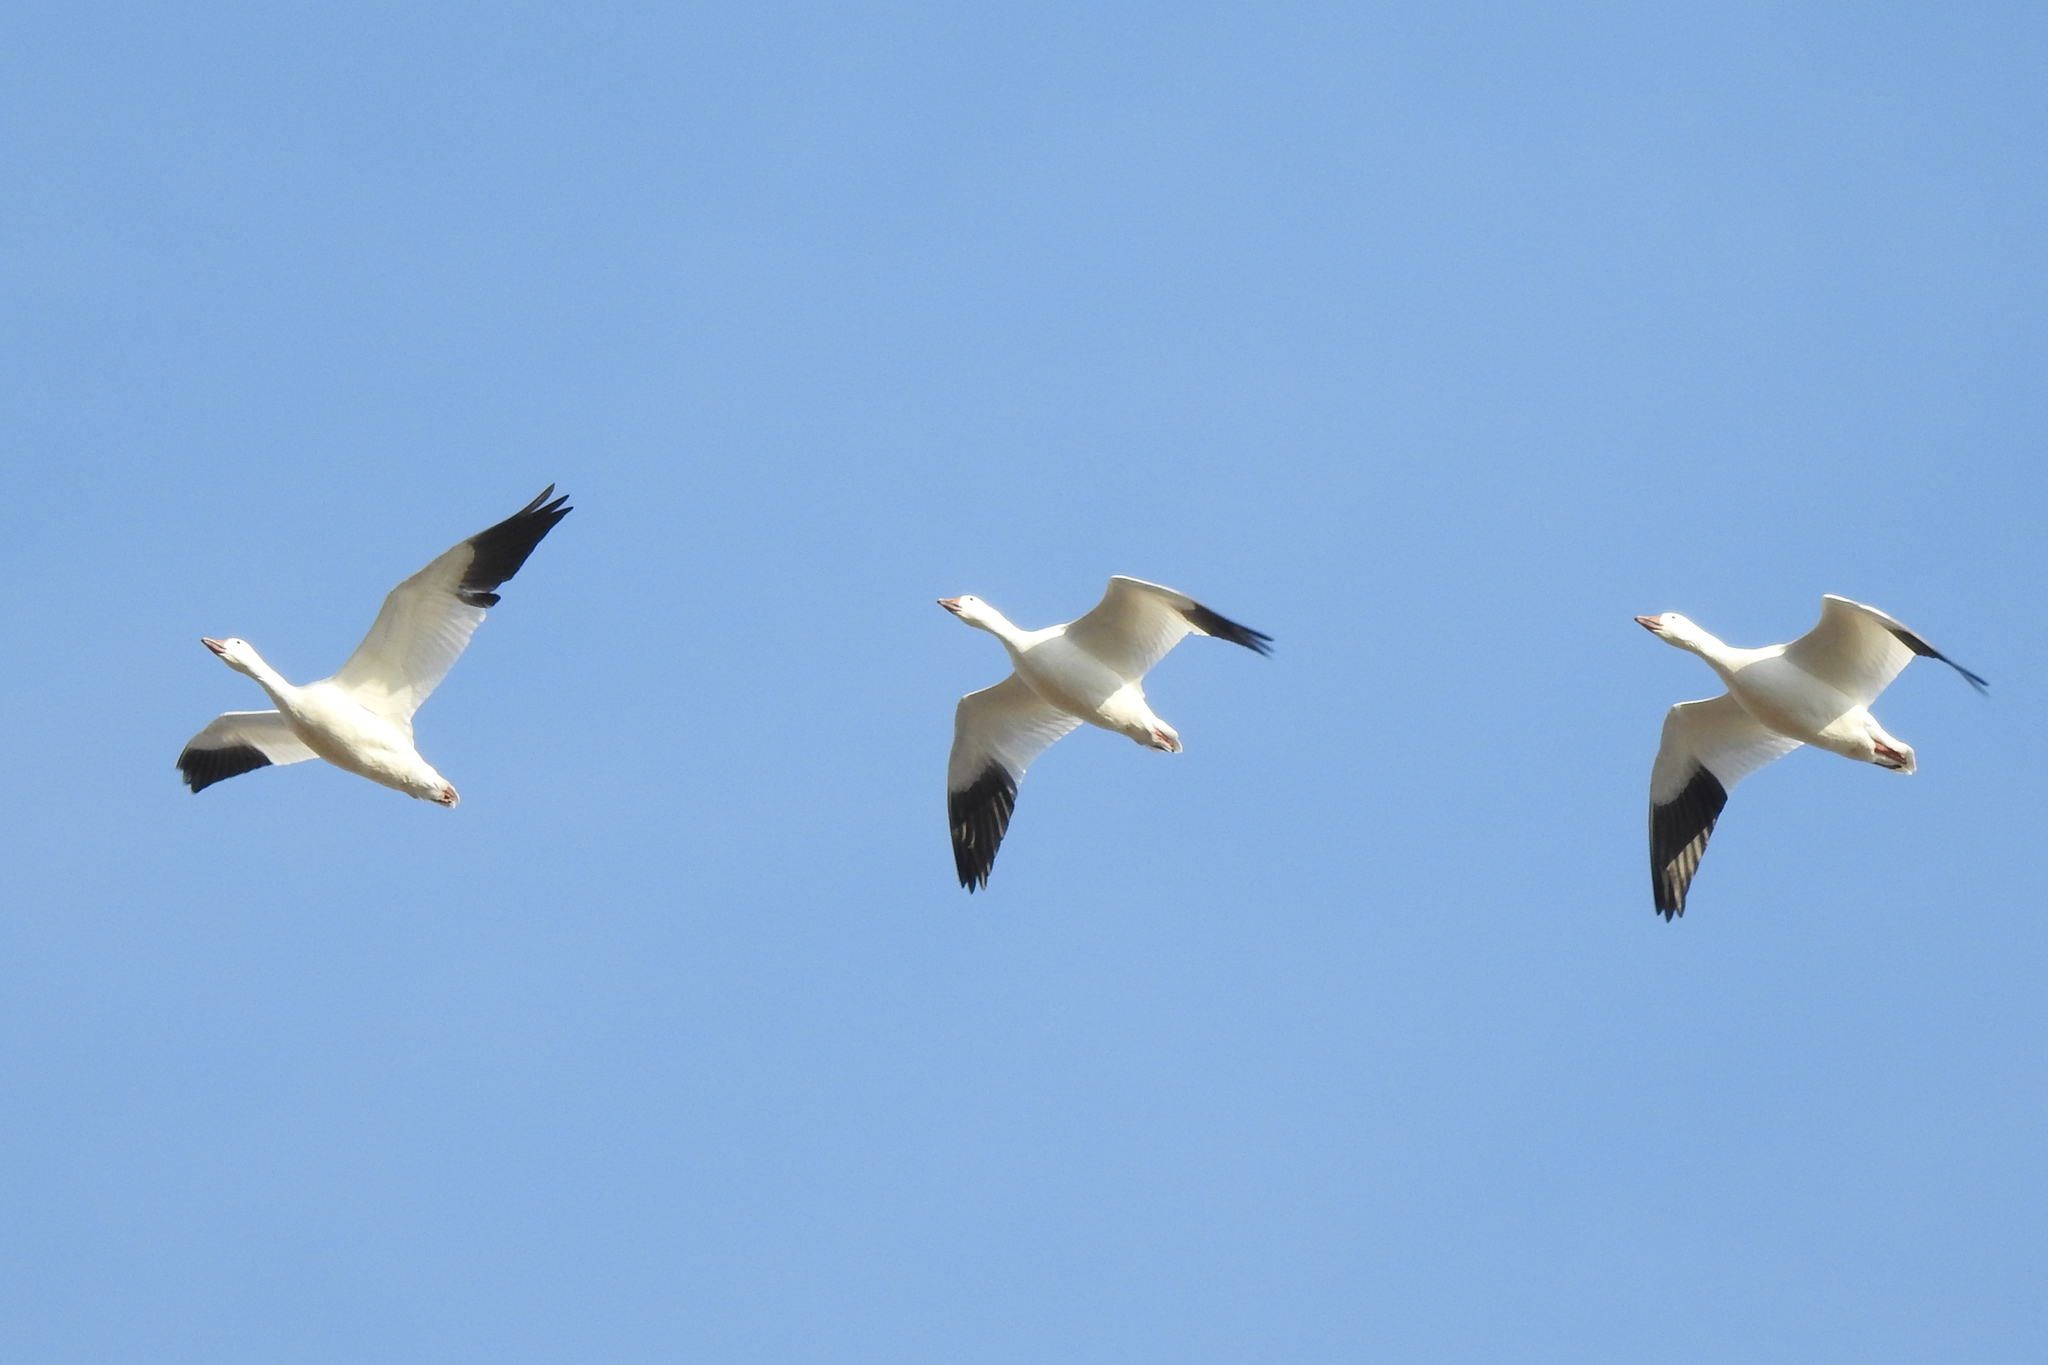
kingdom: Animalia
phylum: Chordata
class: Aves
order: Anseriformes
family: Anatidae
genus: Anser
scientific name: Anser caerulescens
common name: Snow goose
